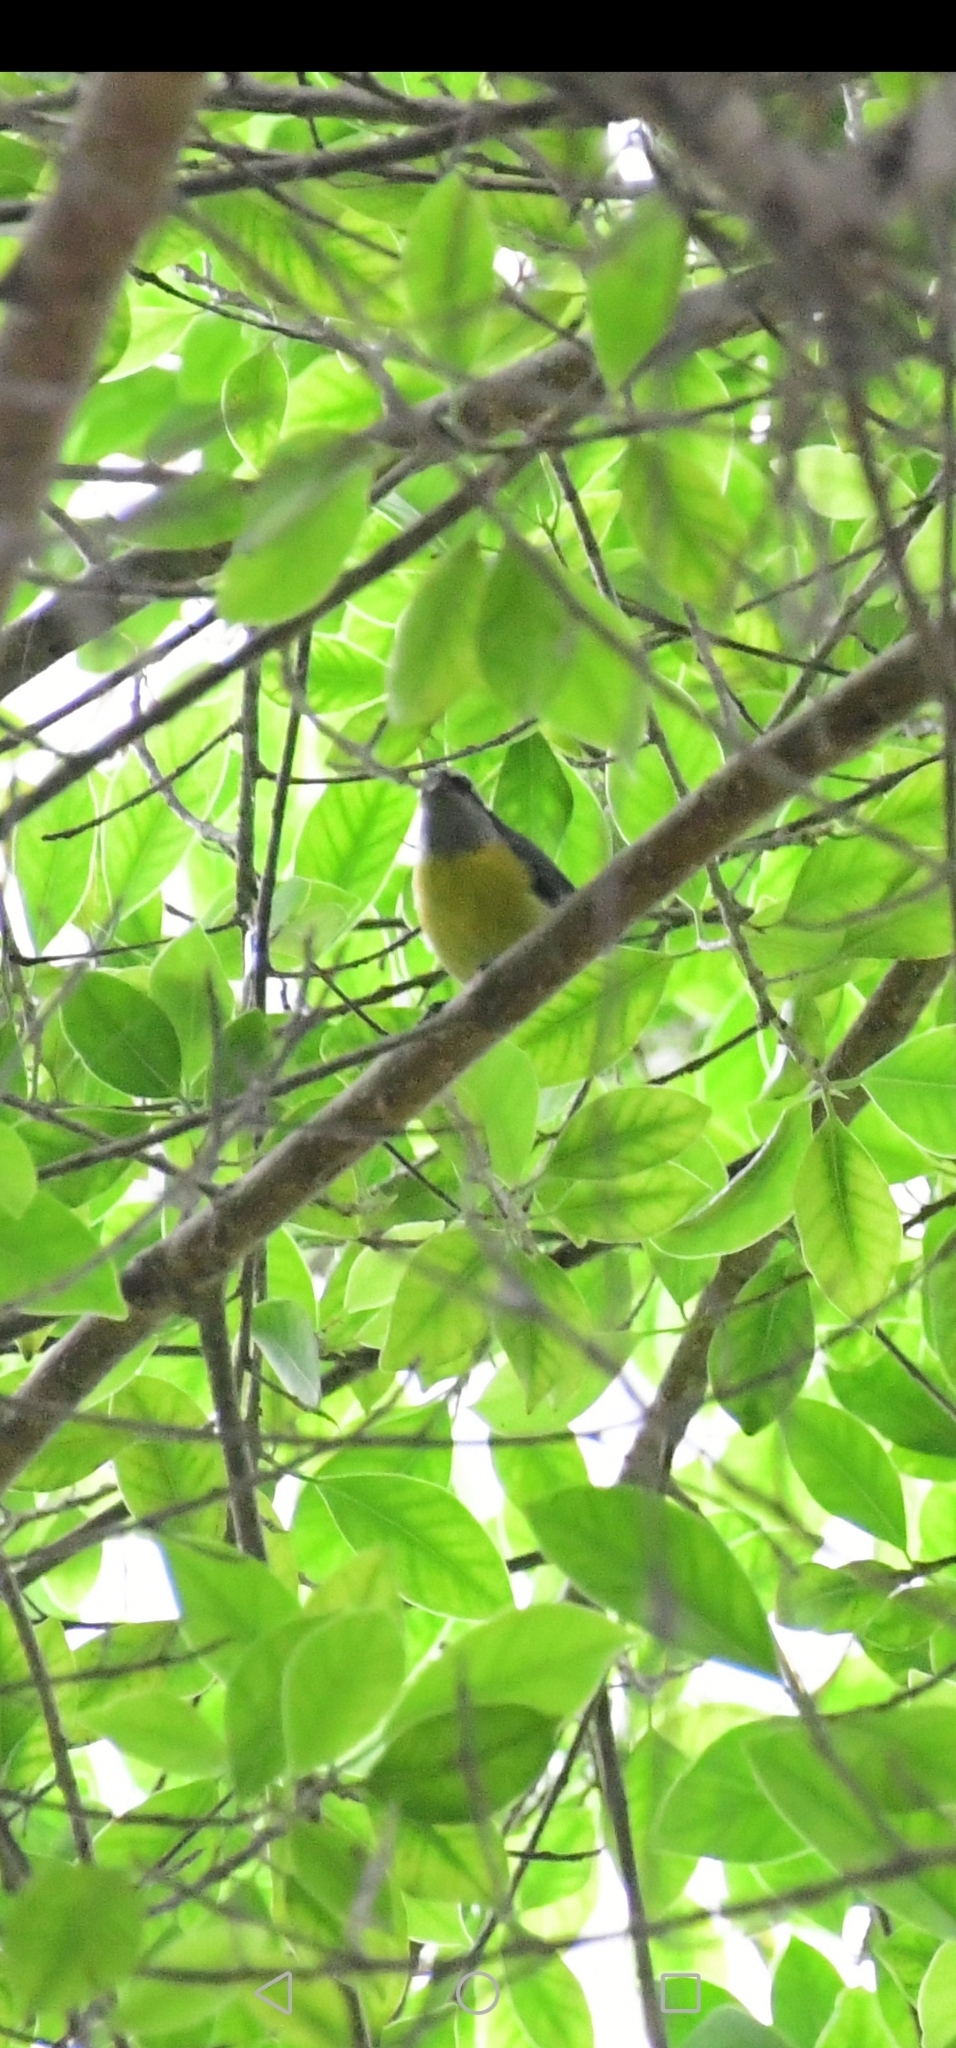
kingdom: Animalia
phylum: Chordata
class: Aves
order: Passeriformes
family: Thraupidae
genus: Coereba
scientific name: Coereba flaveola
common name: Bananaquit
